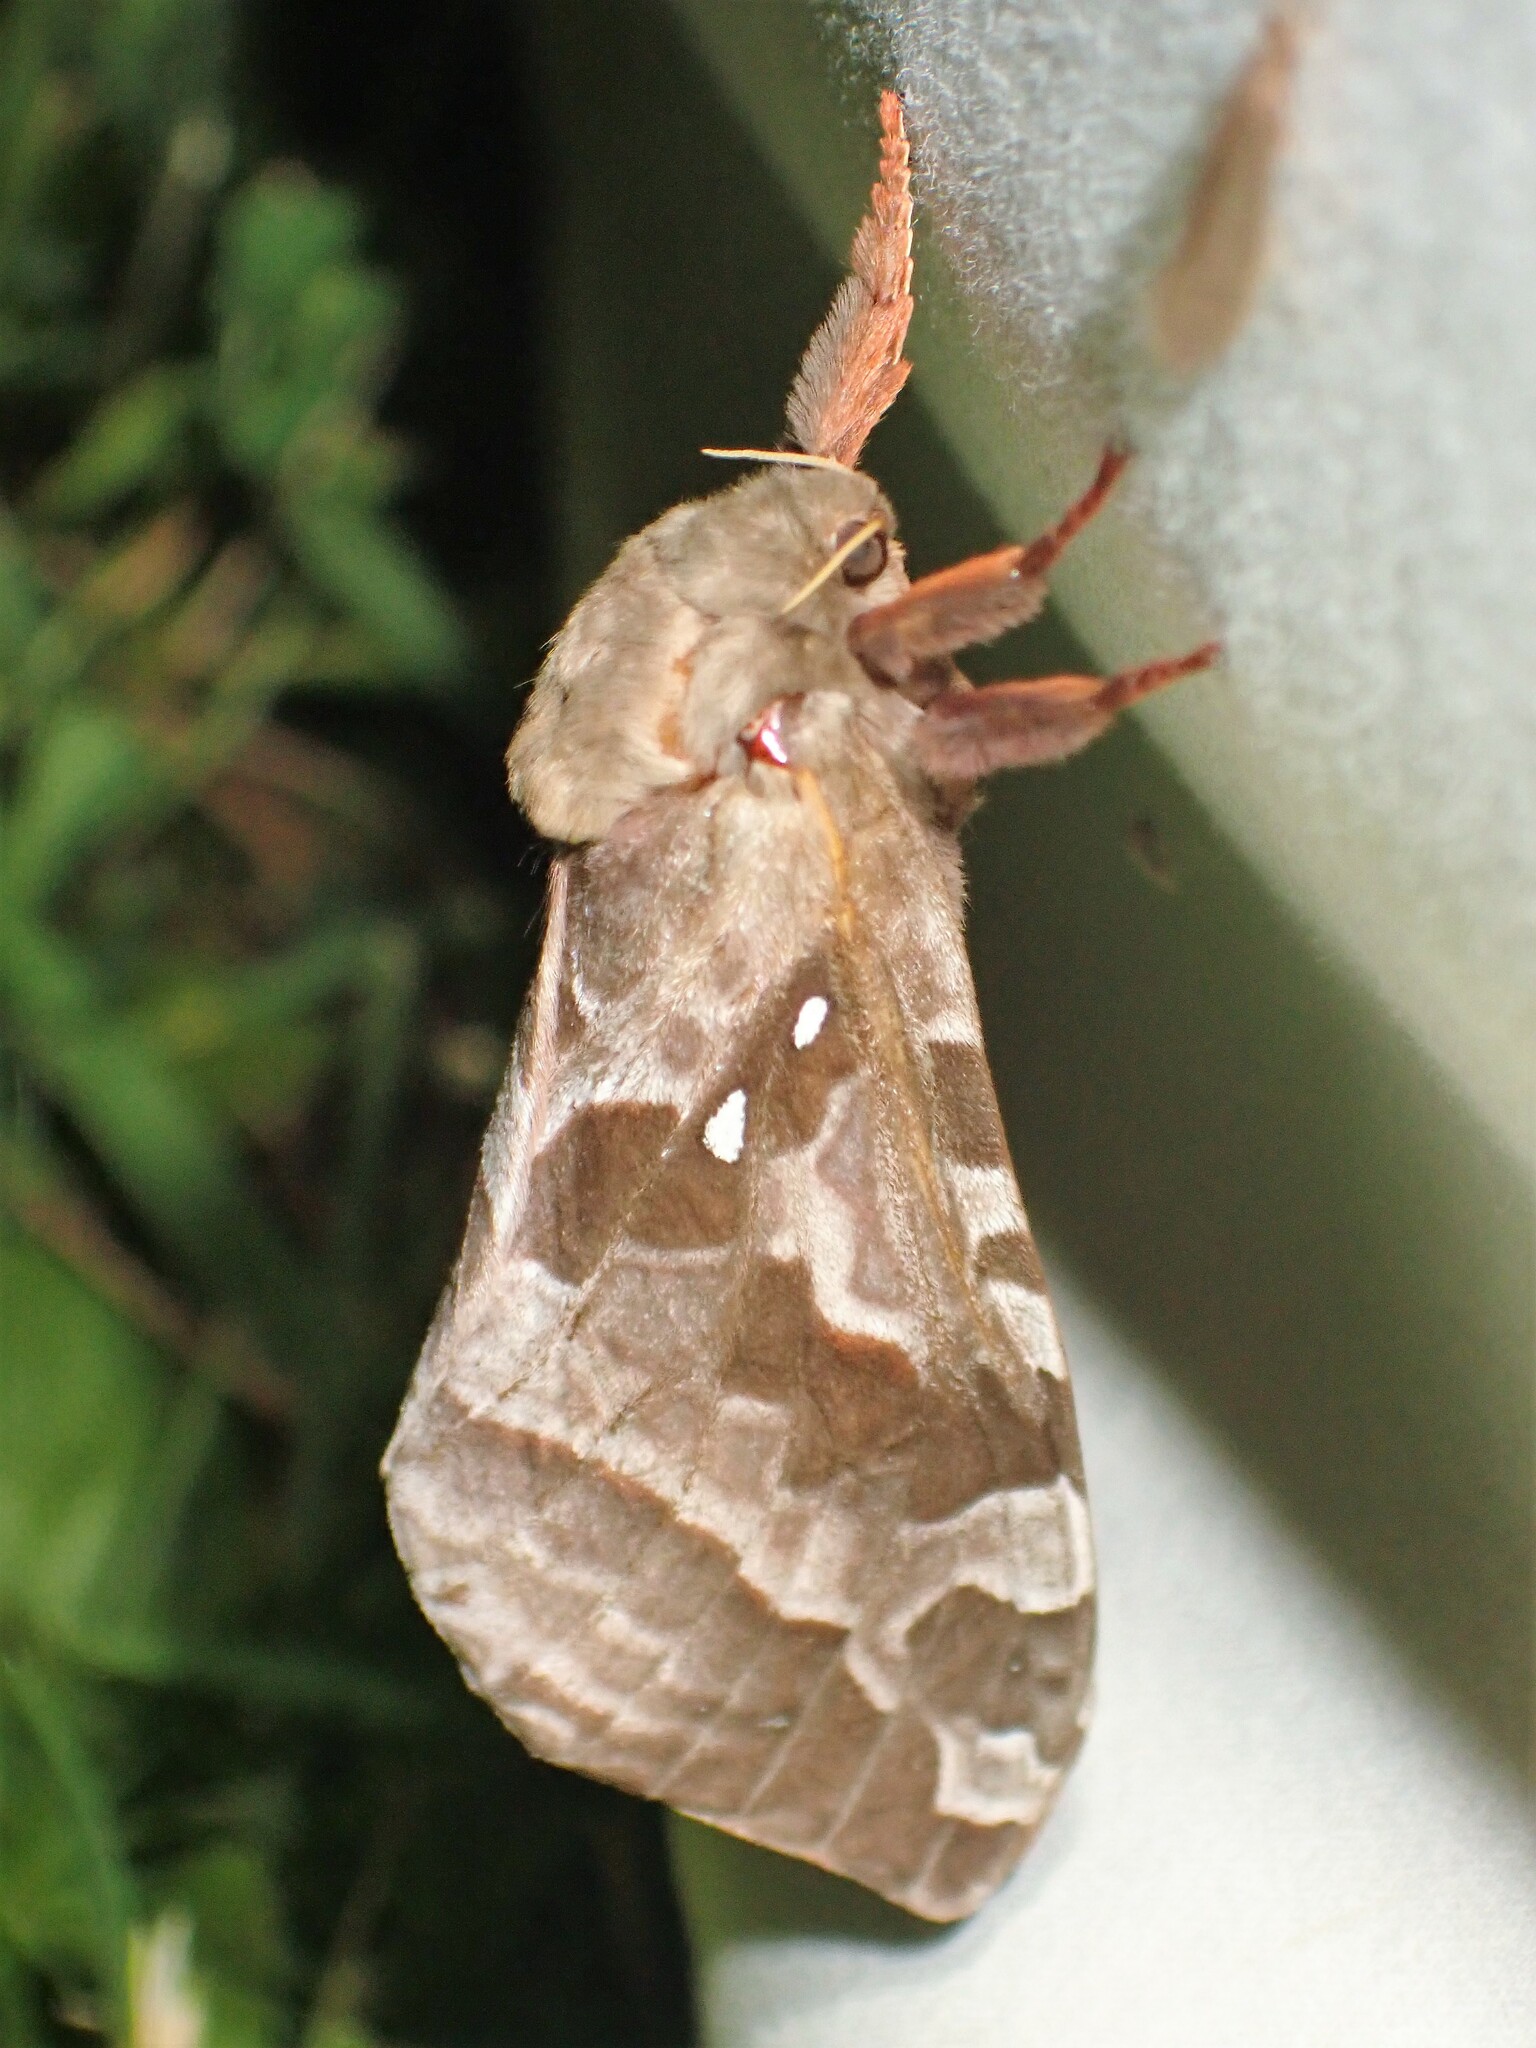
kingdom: Animalia
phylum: Arthropoda
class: Insecta
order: Lepidoptera
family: Hepialidae
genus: Sthenopis
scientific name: Sthenopis purpurascens
